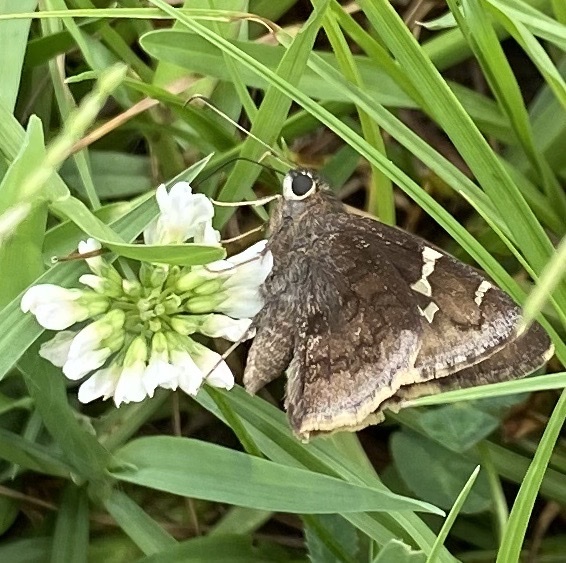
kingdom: Animalia
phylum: Arthropoda
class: Insecta
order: Lepidoptera
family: Hesperiidae
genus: Thorybes
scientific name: Thorybes daunus
